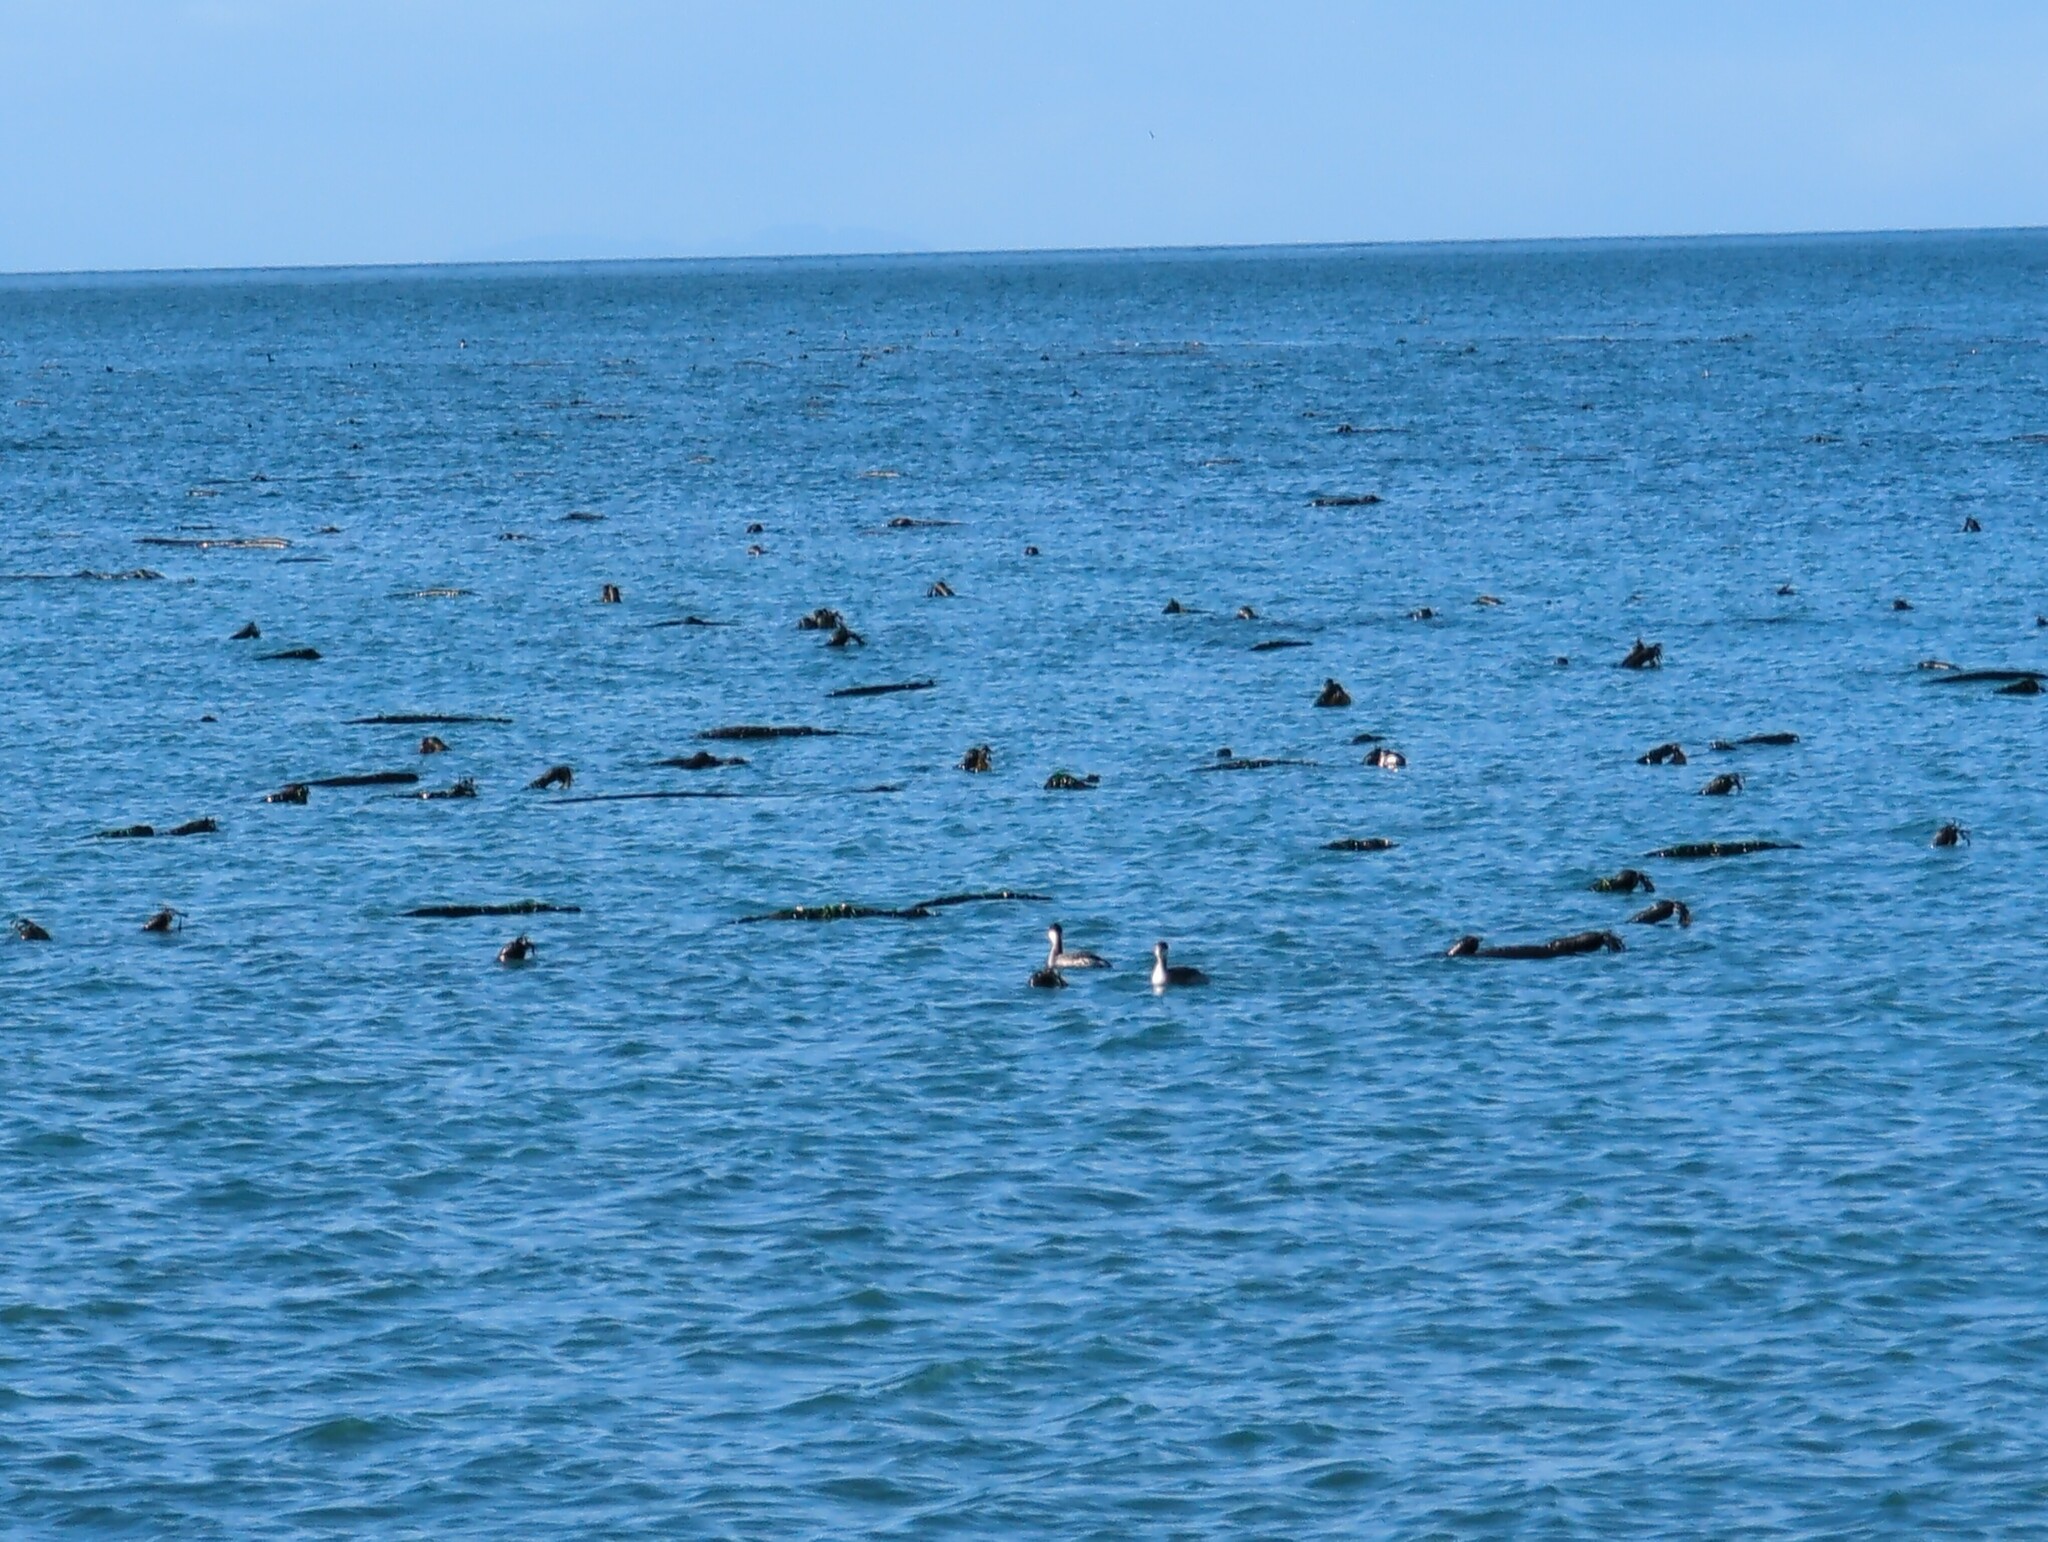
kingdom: Chromista
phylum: Ochrophyta
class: Phaeophyceae
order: Laminariales
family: Laminariaceae
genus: Nereocystis
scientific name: Nereocystis luetkeana
